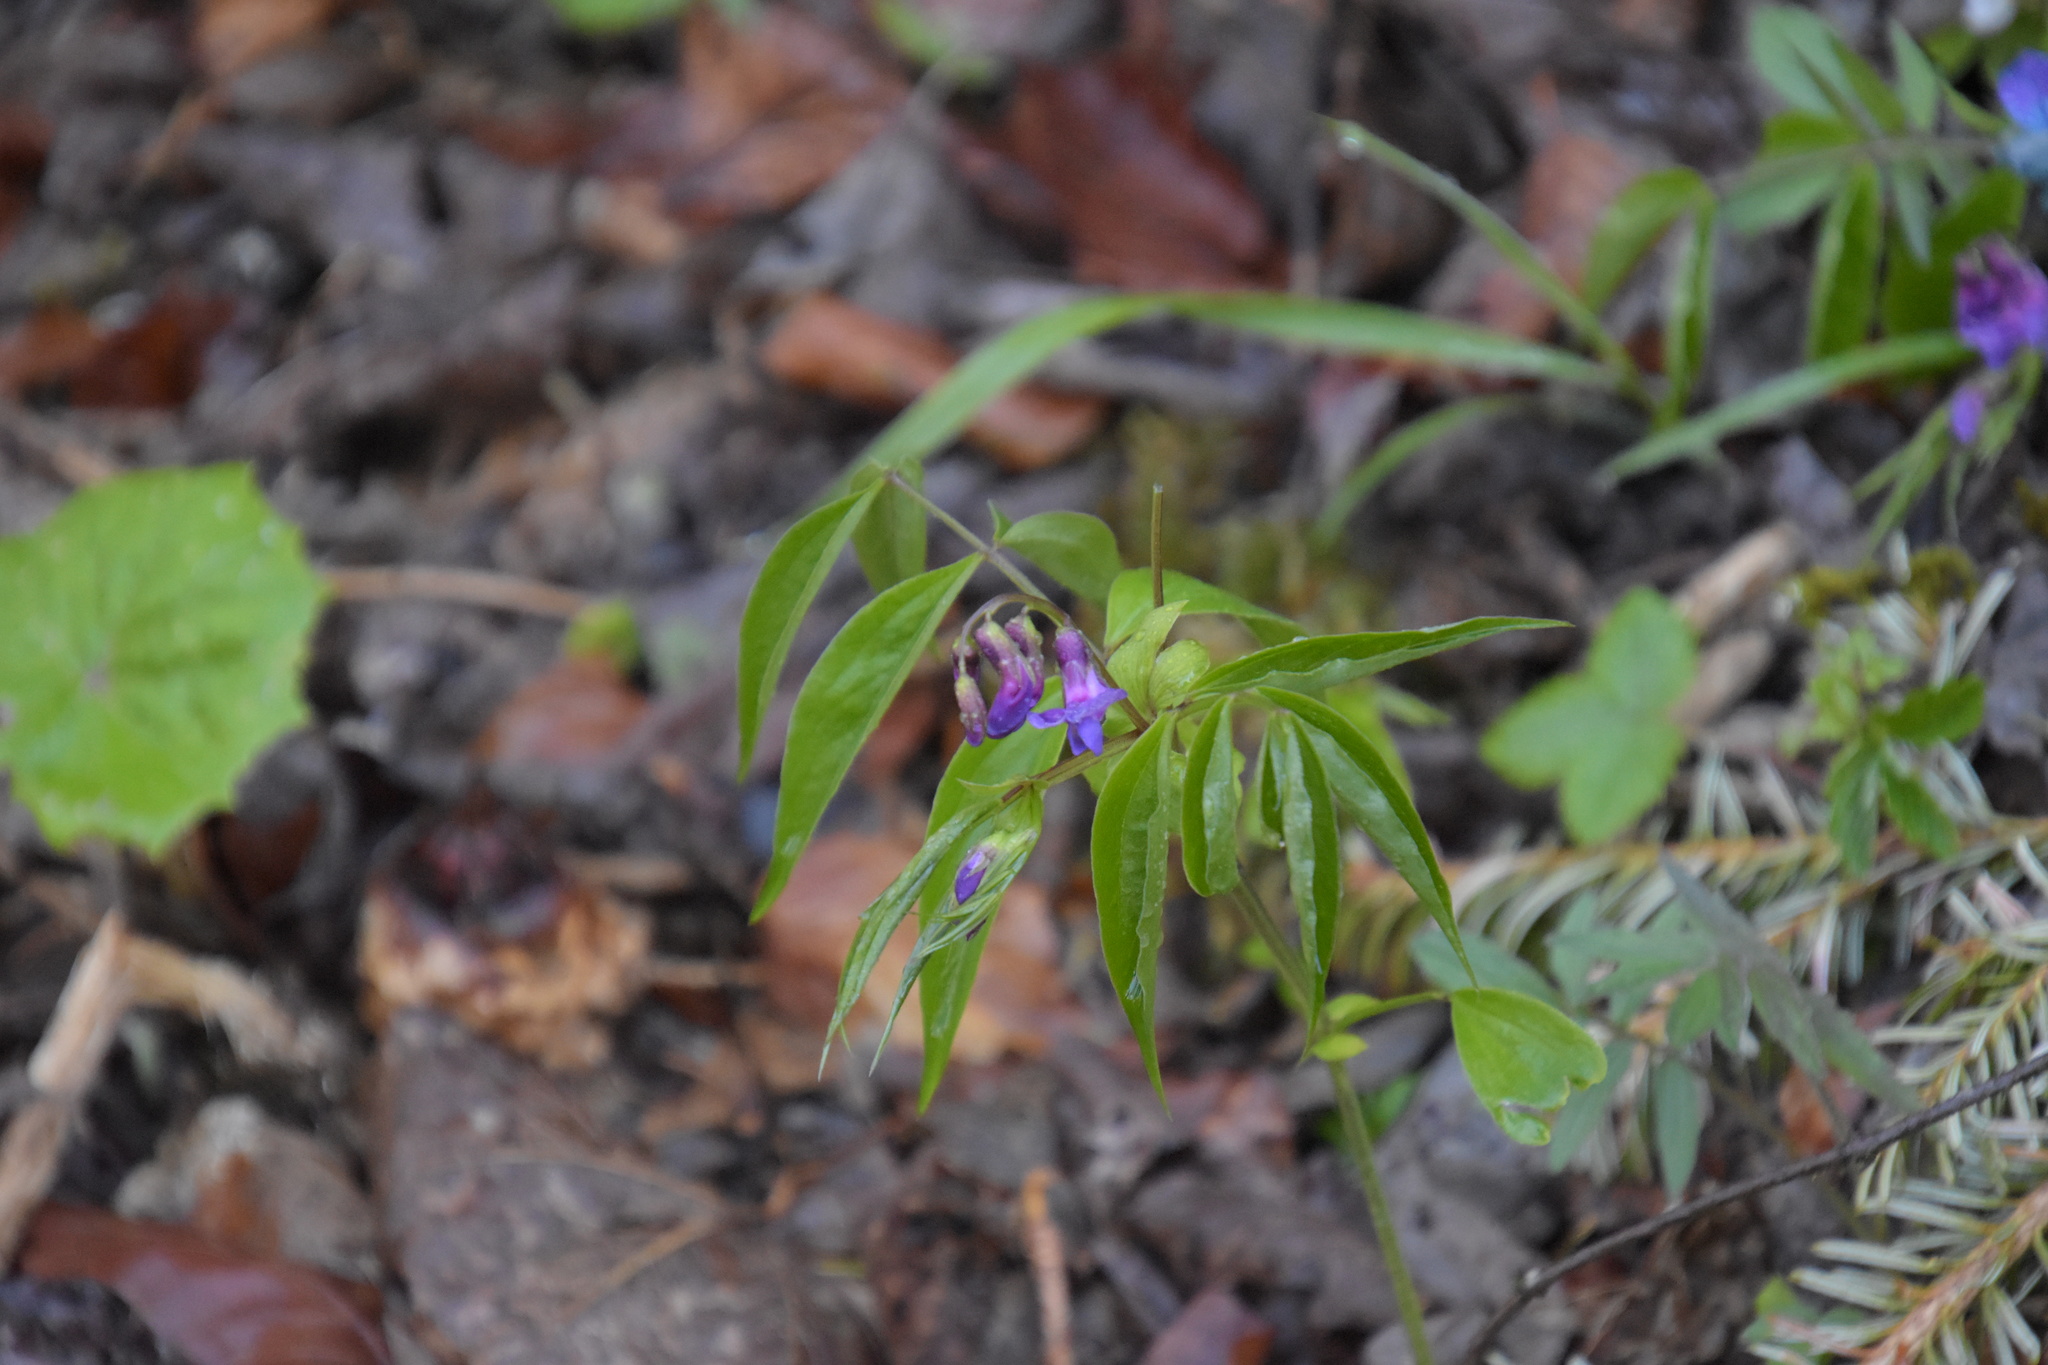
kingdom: Plantae
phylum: Tracheophyta
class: Magnoliopsida
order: Fabales
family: Fabaceae
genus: Lathyrus
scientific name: Lathyrus vernus
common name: Spring pea
